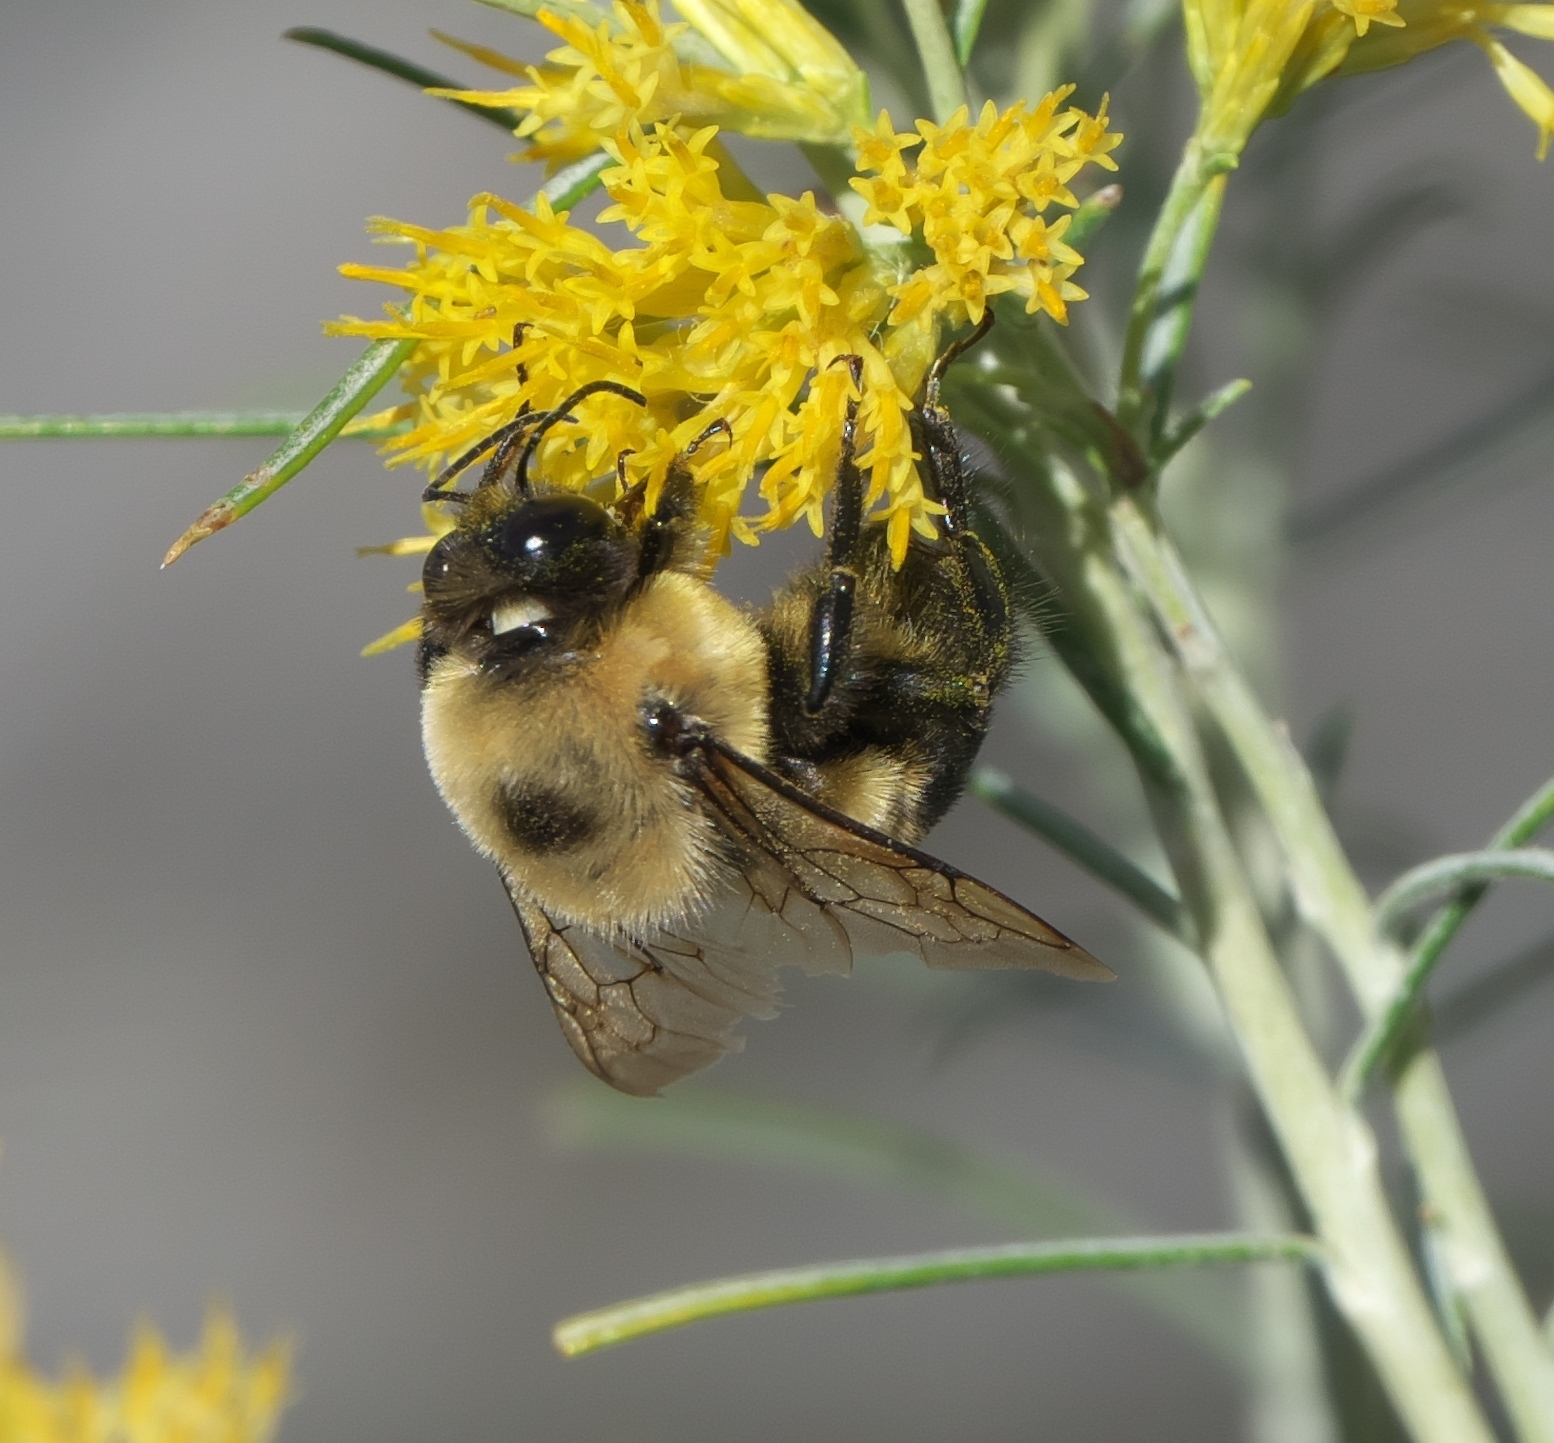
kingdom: Animalia
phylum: Arthropoda
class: Insecta
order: Hymenoptera
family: Apidae
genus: Bombus
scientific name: Bombus griseocollis
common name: Brown-belted bumble bee
